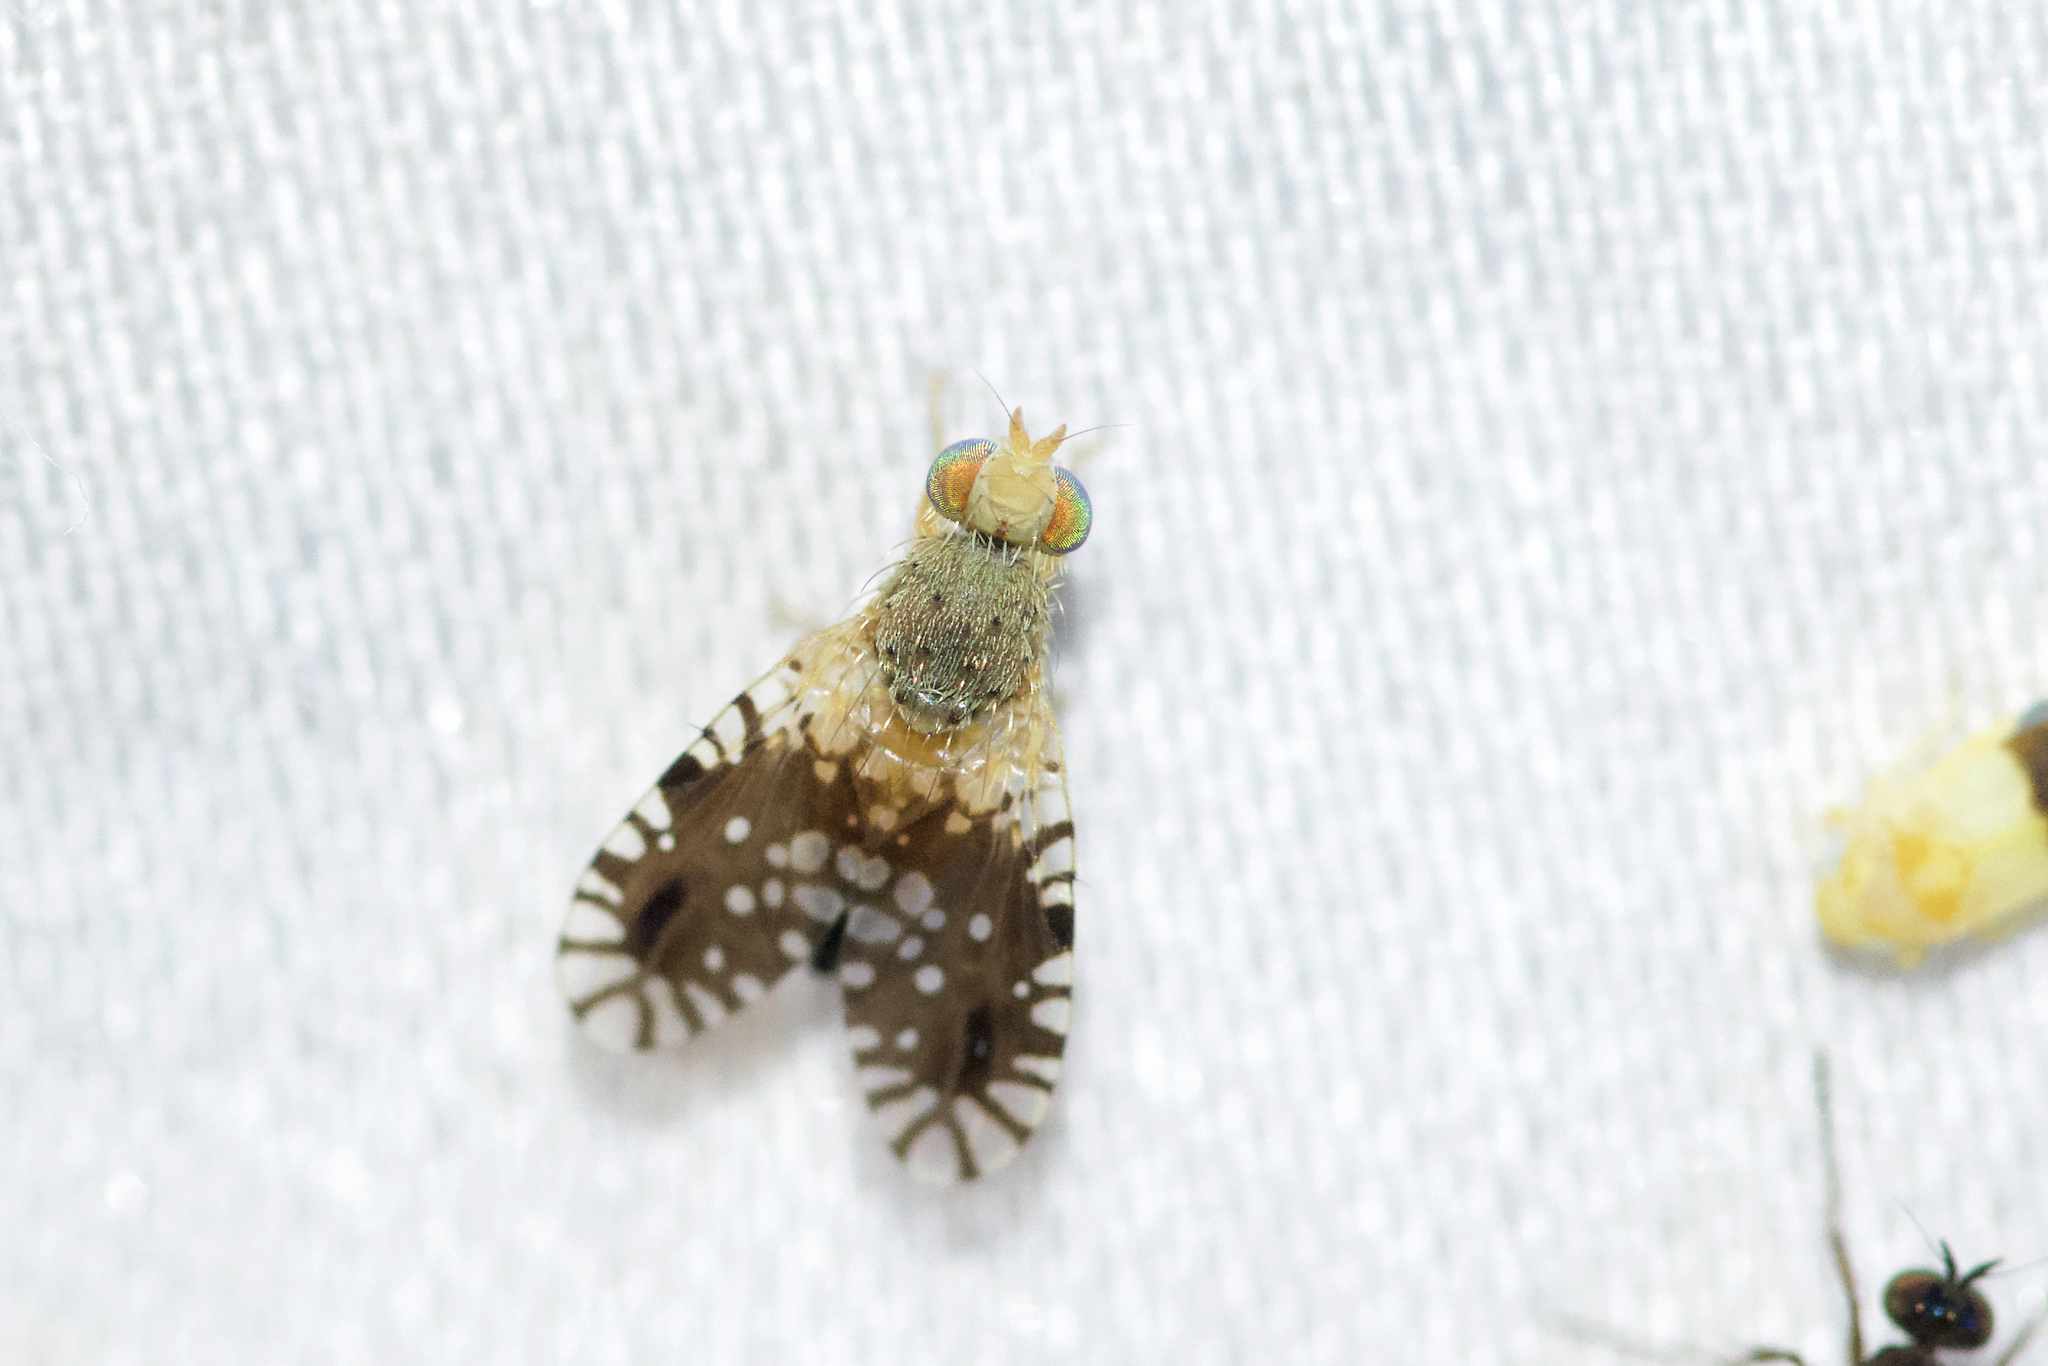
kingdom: Animalia
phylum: Arthropoda
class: Insecta
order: Diptera
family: Tephritidae
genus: Euaresta
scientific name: Euaresta bella
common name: Common ragweed fruit fly
